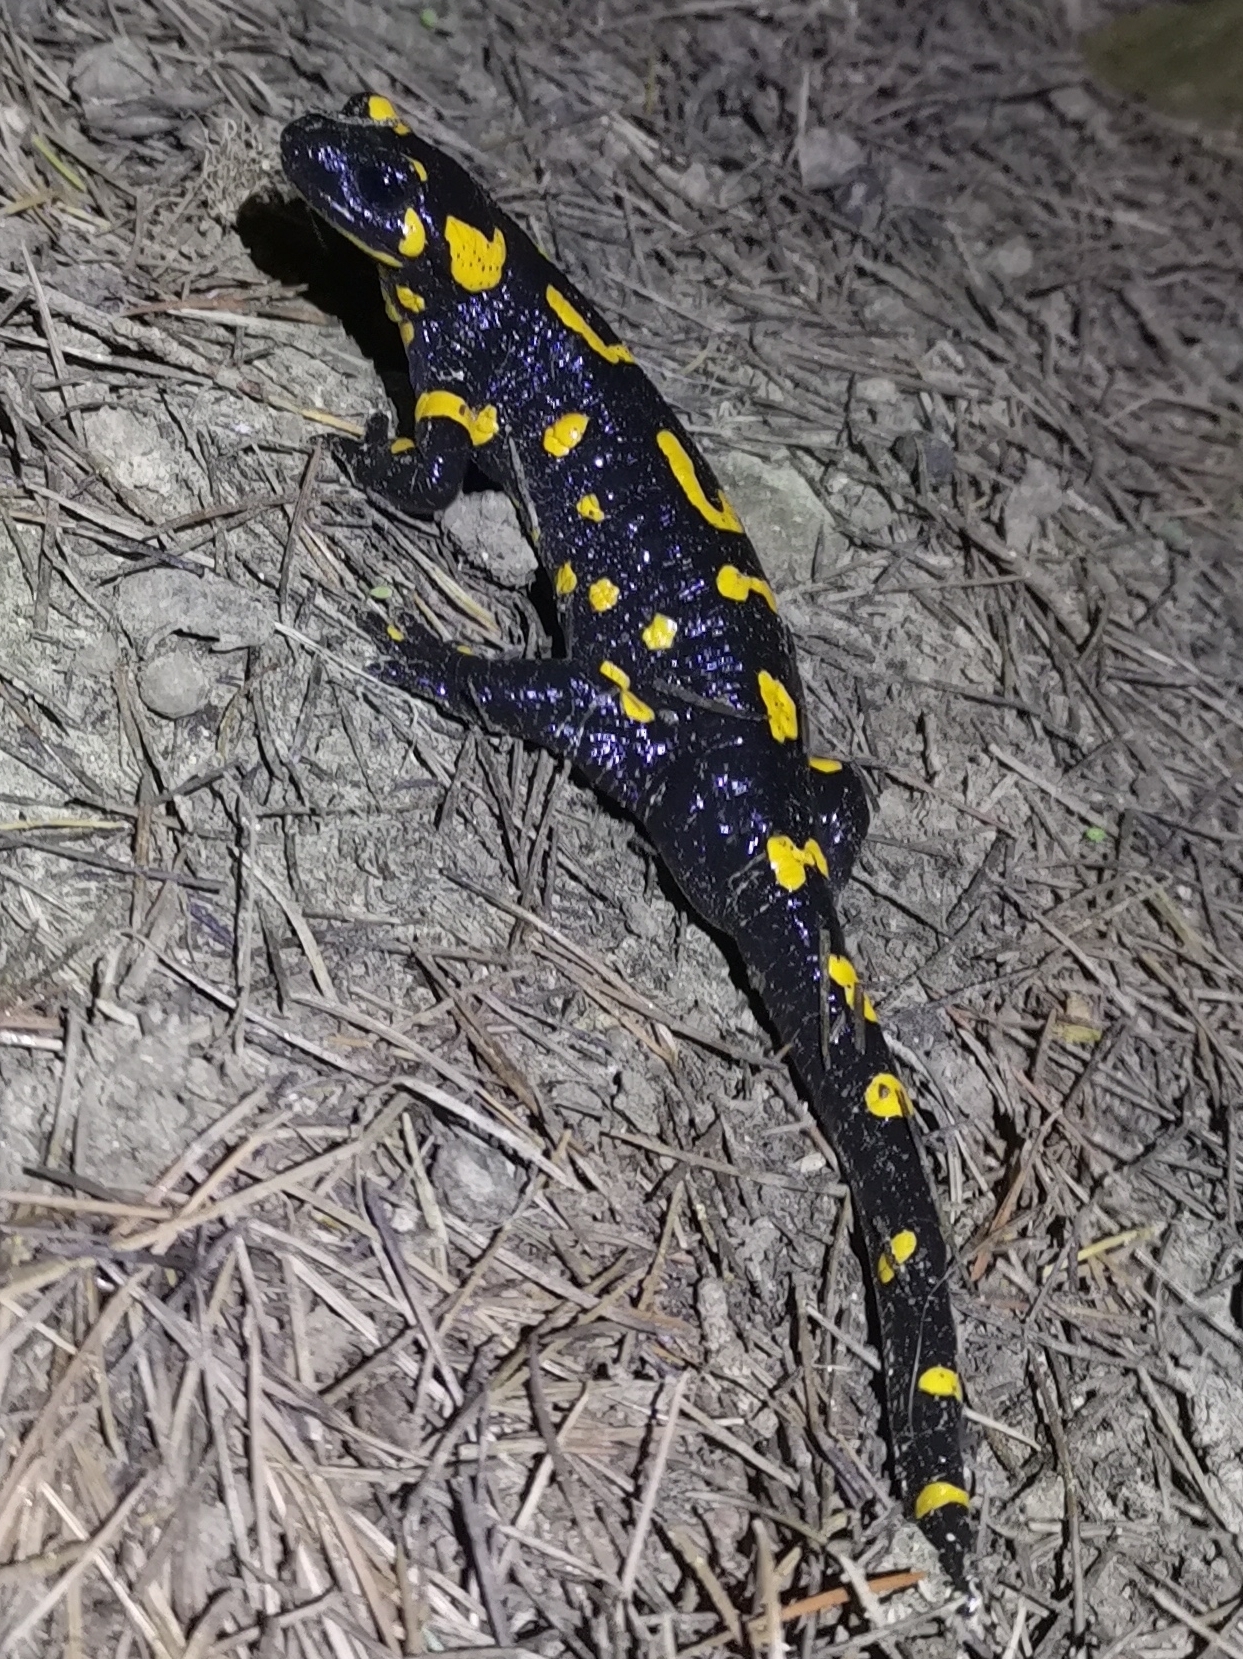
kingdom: Animalia
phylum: Chordata
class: Amphibia
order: Caudata
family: Salamandridae
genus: Salamandra
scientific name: Salamandra salamandra
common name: Fire salamander
